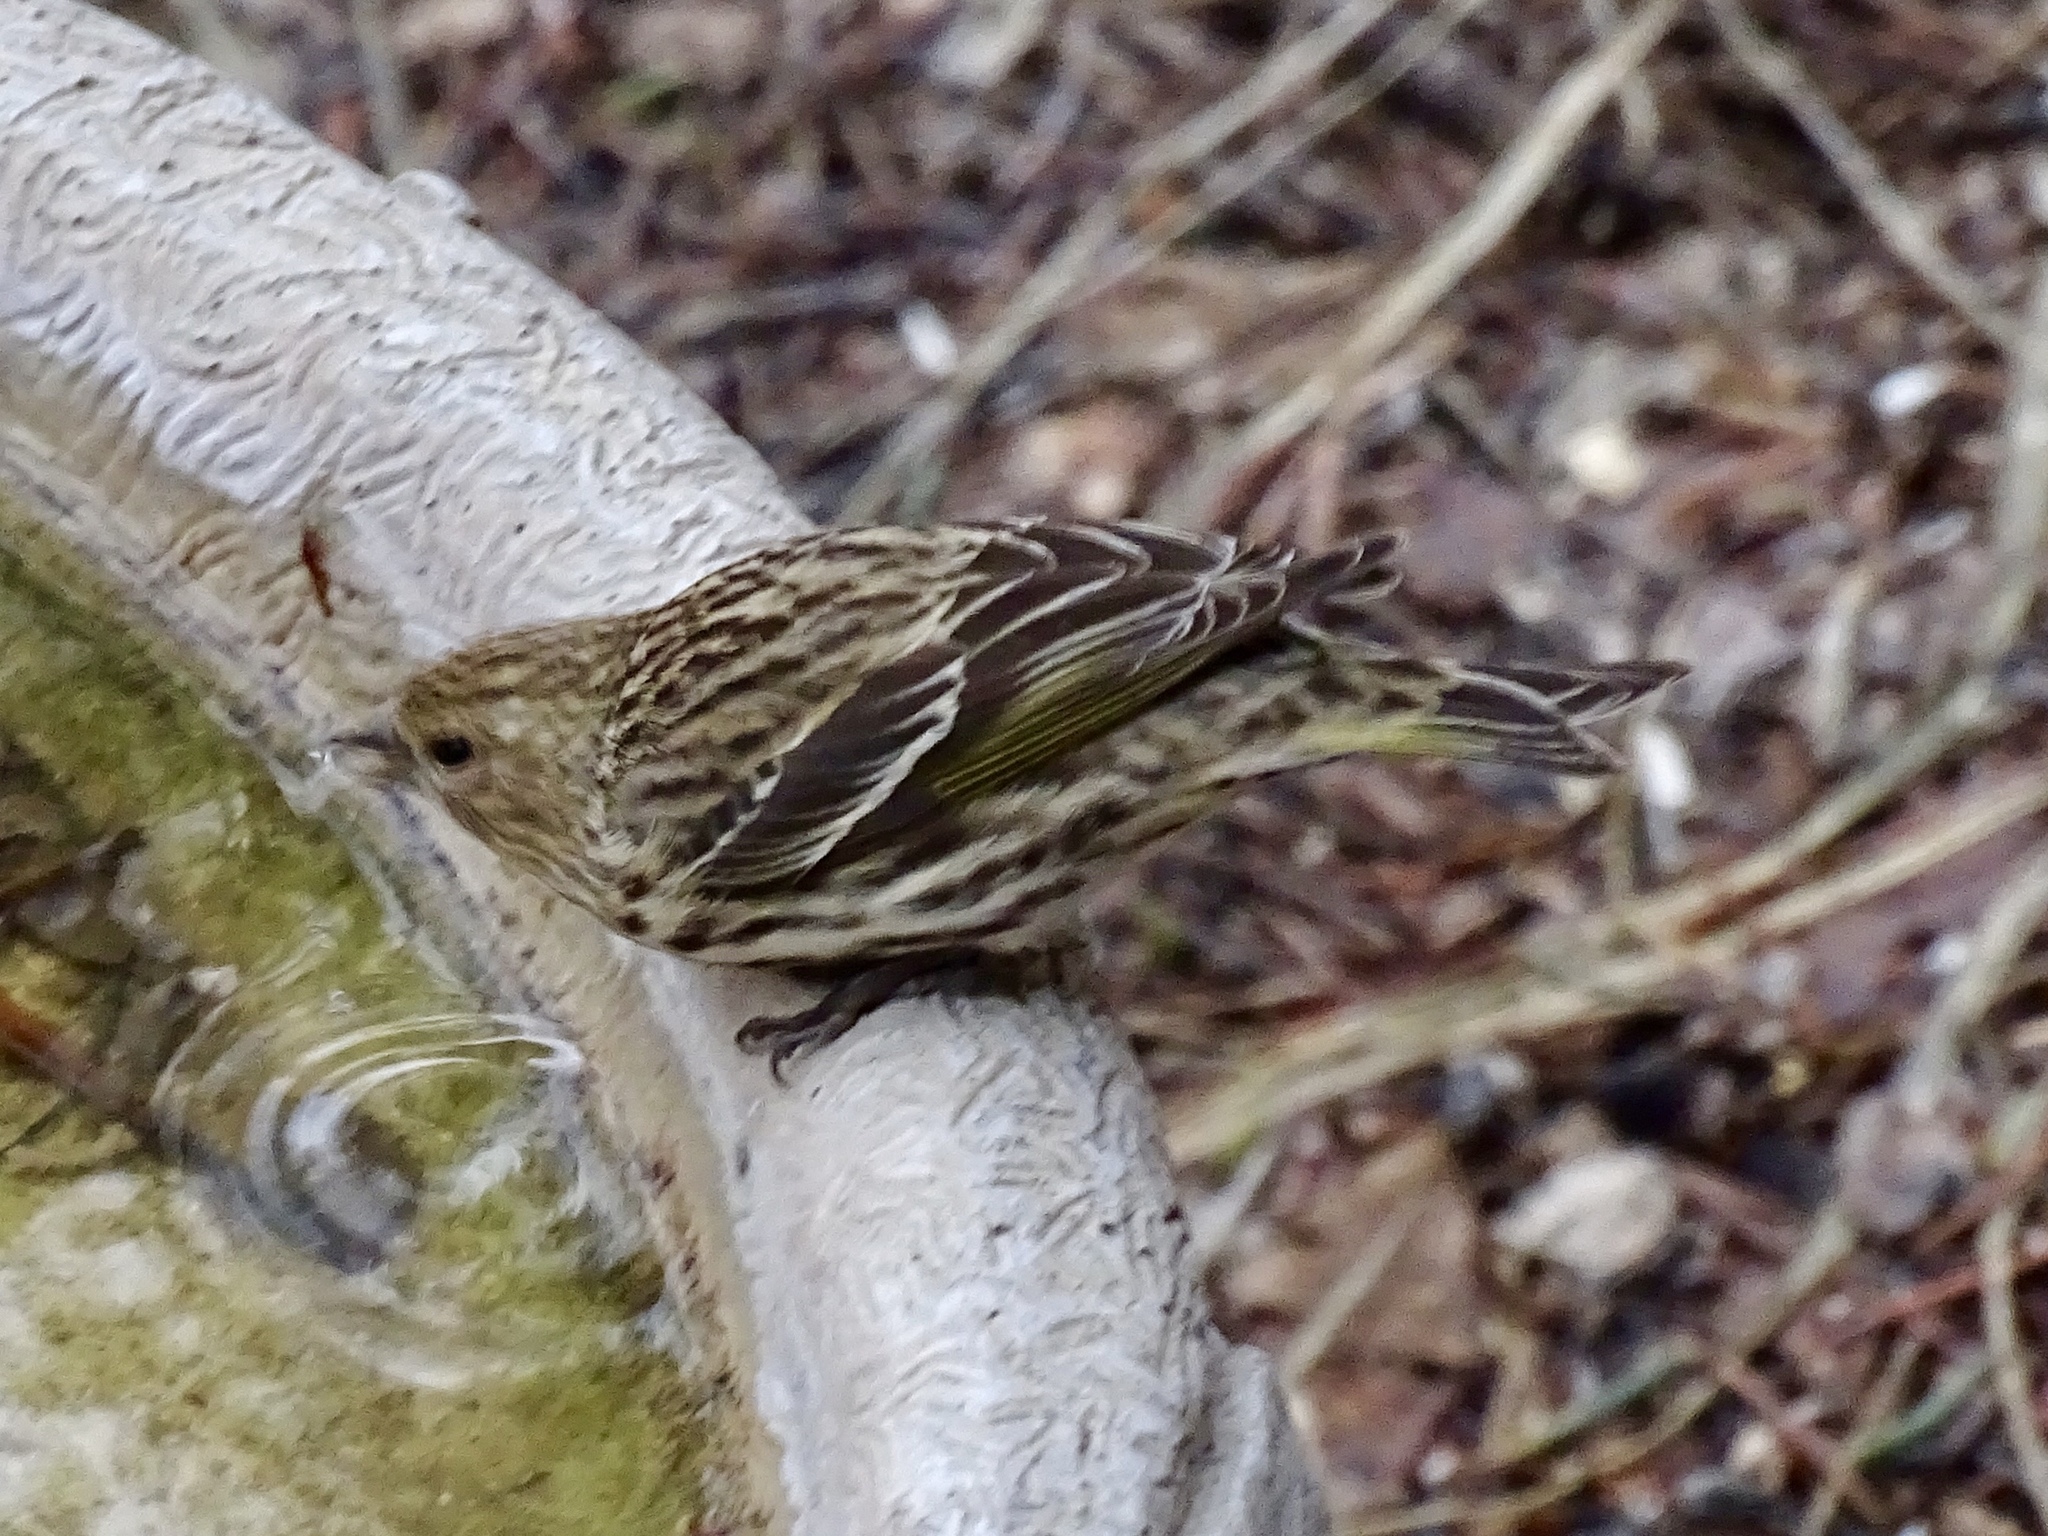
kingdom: Animalia
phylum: Chordata
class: Aves
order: Passeriformes
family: Fringillidae
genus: Spinus
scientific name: Spinus pinus
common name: Pine siskin
